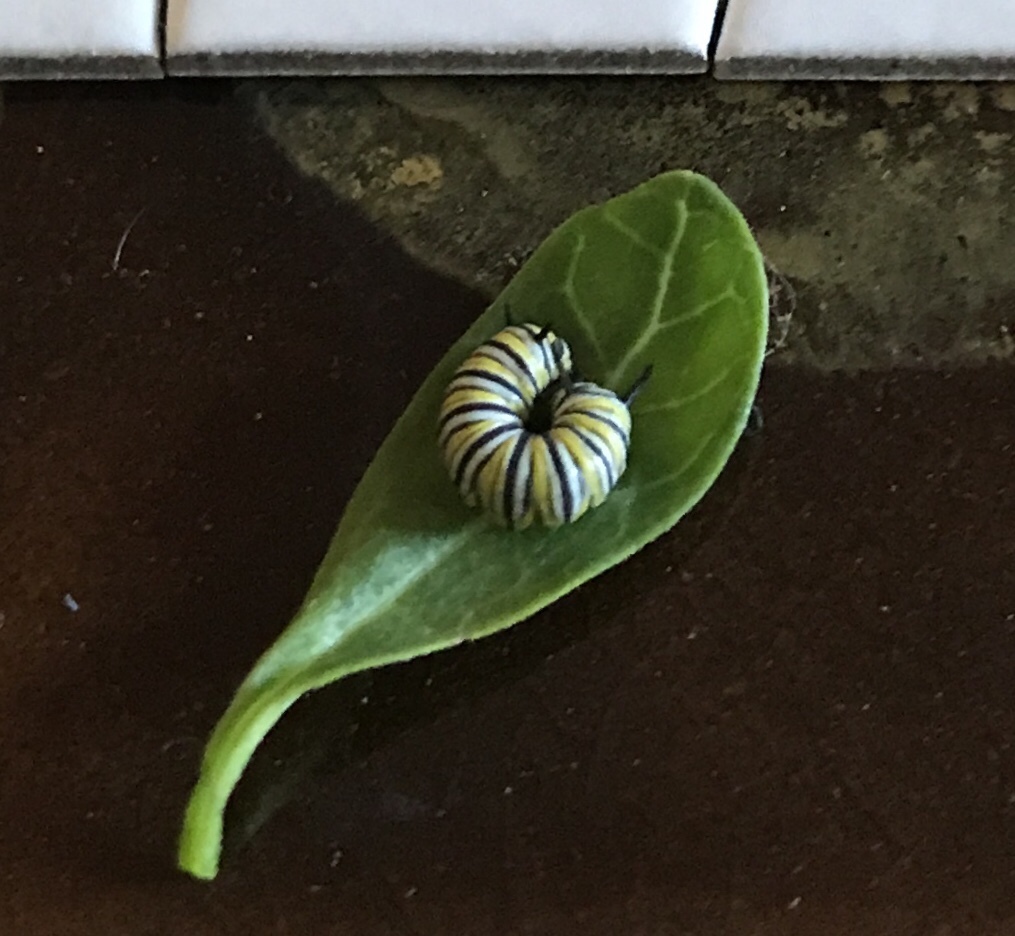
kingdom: Animalia
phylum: Arthropoda
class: Insecta
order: Lepidoptera
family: Nymphalidae
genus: Danaus
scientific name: Danaus plexippus
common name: Monarch
